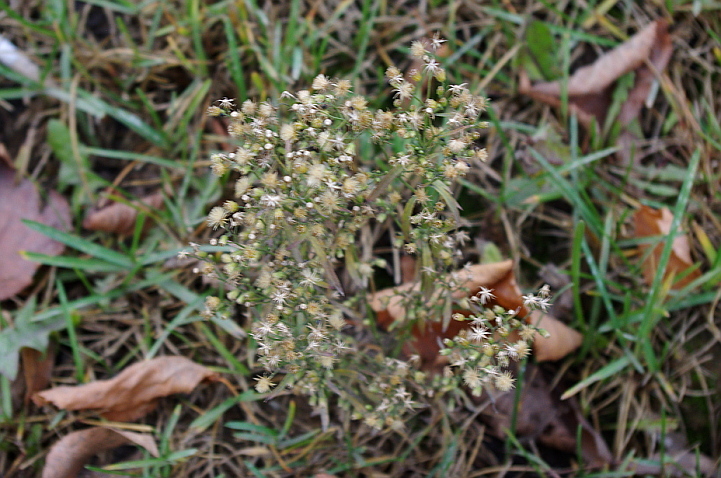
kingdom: Plantae
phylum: Tracheophyta
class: Magnoliopsida
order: Asterales
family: Asteraceae
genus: Erigeron
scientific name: Erigeron canadensis
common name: Canadian fleabane
